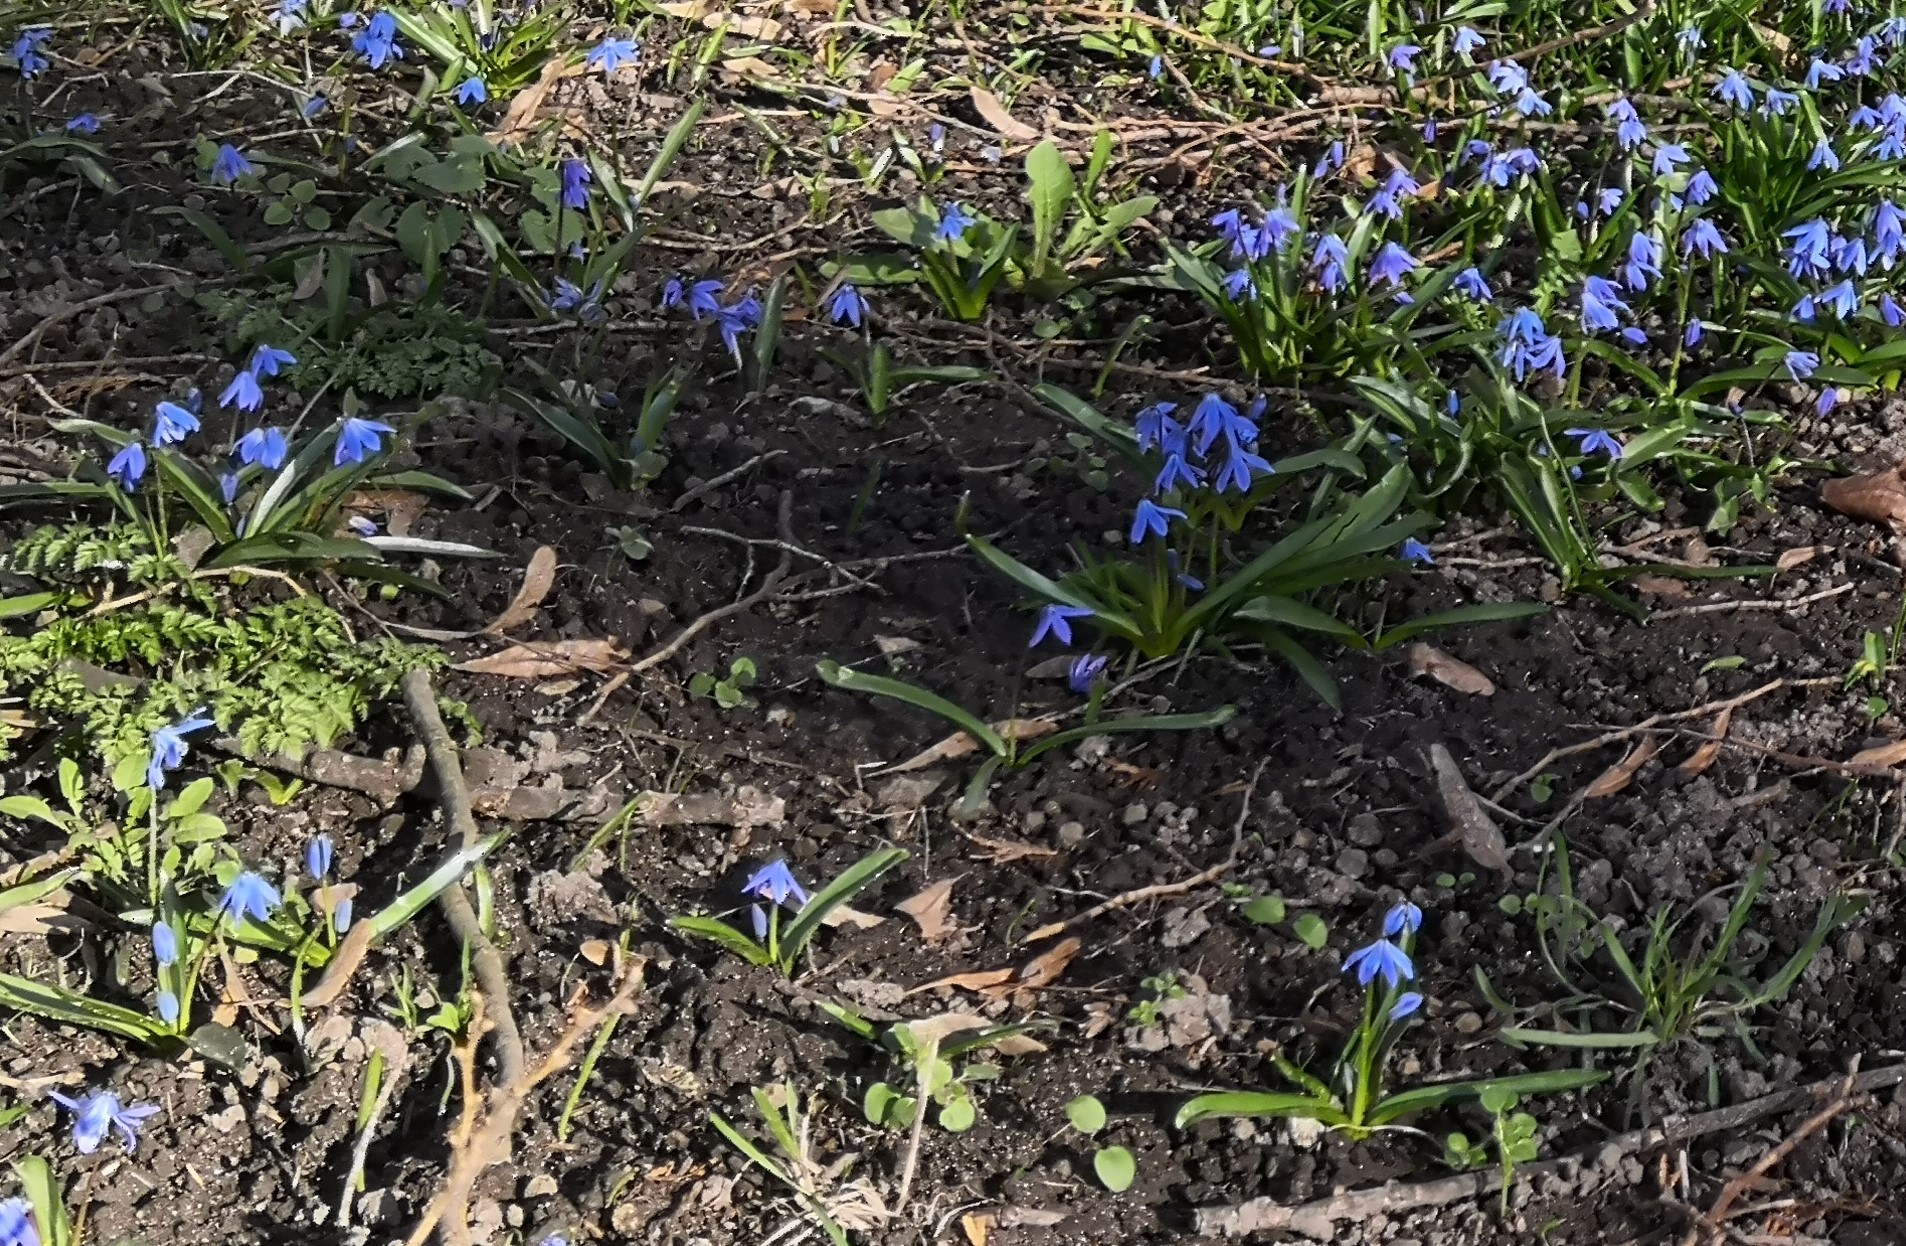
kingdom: Plantae
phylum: Tracheophyta
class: Liliopsida
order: Asparagales
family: Asparagaceae
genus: Scilla
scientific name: Scilla siberica
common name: Siberian squill
